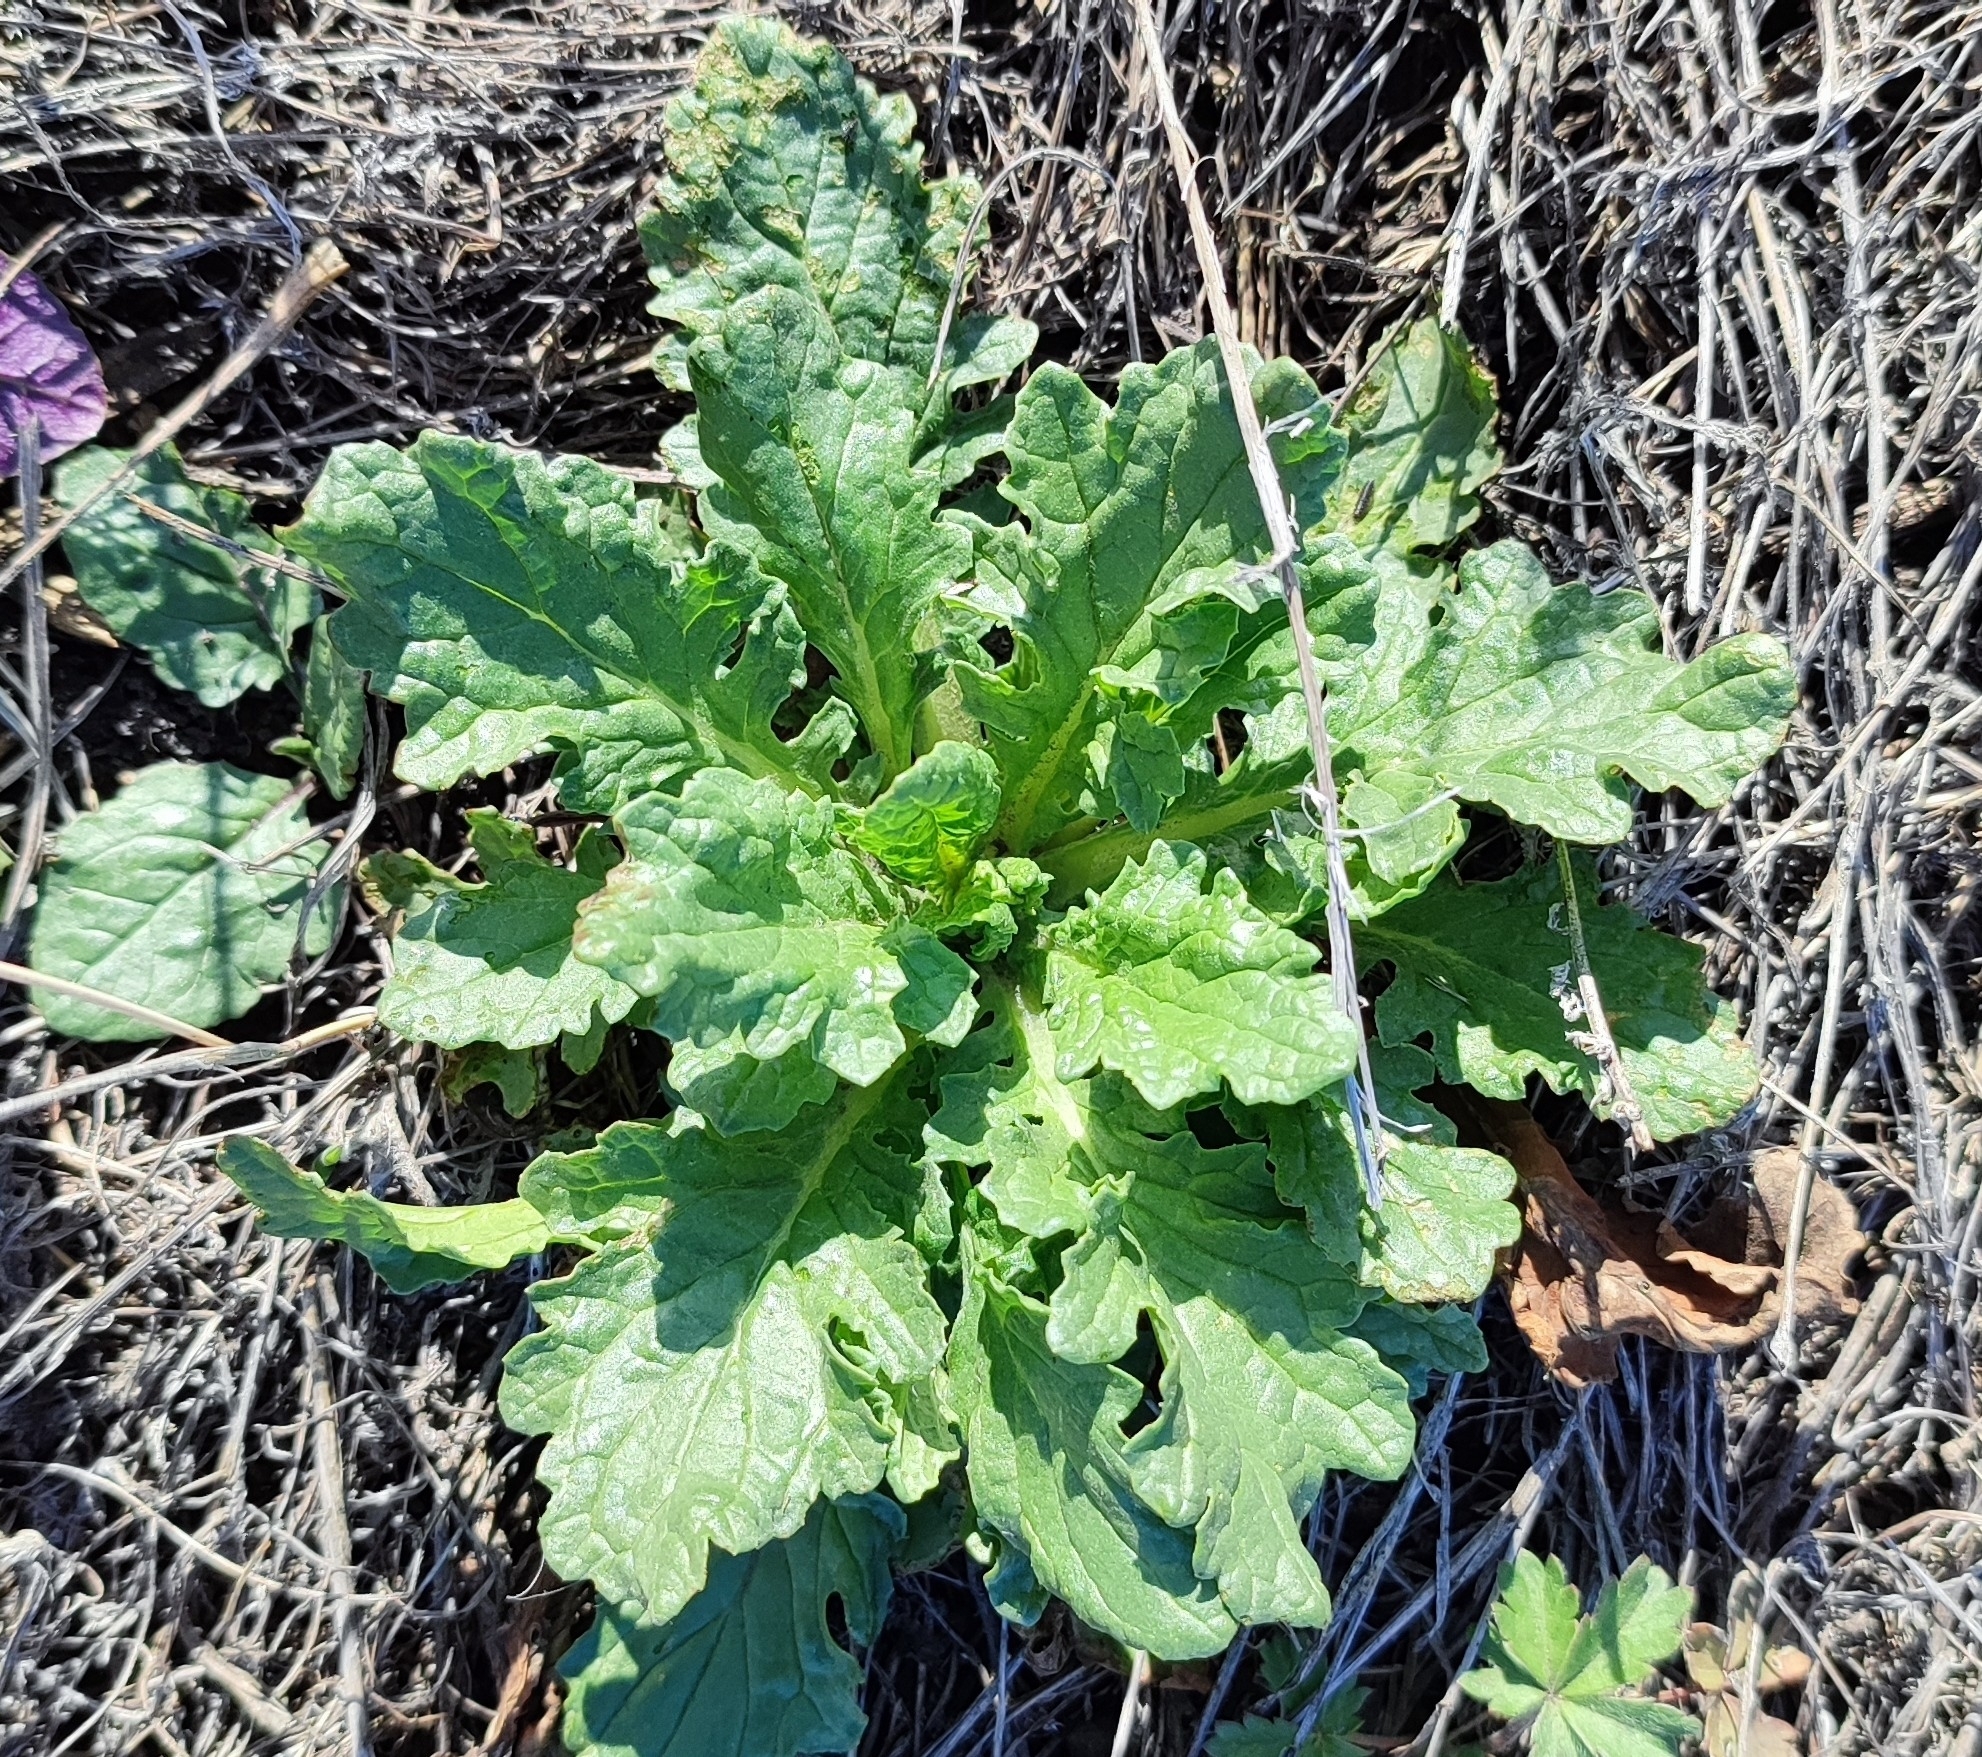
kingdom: Plantae
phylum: Tracheophyta
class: Magnoliopsida
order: Asterales
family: Asteraceae
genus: Jacobaea
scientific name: Jacobaea vulgaris
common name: Stinking willie
